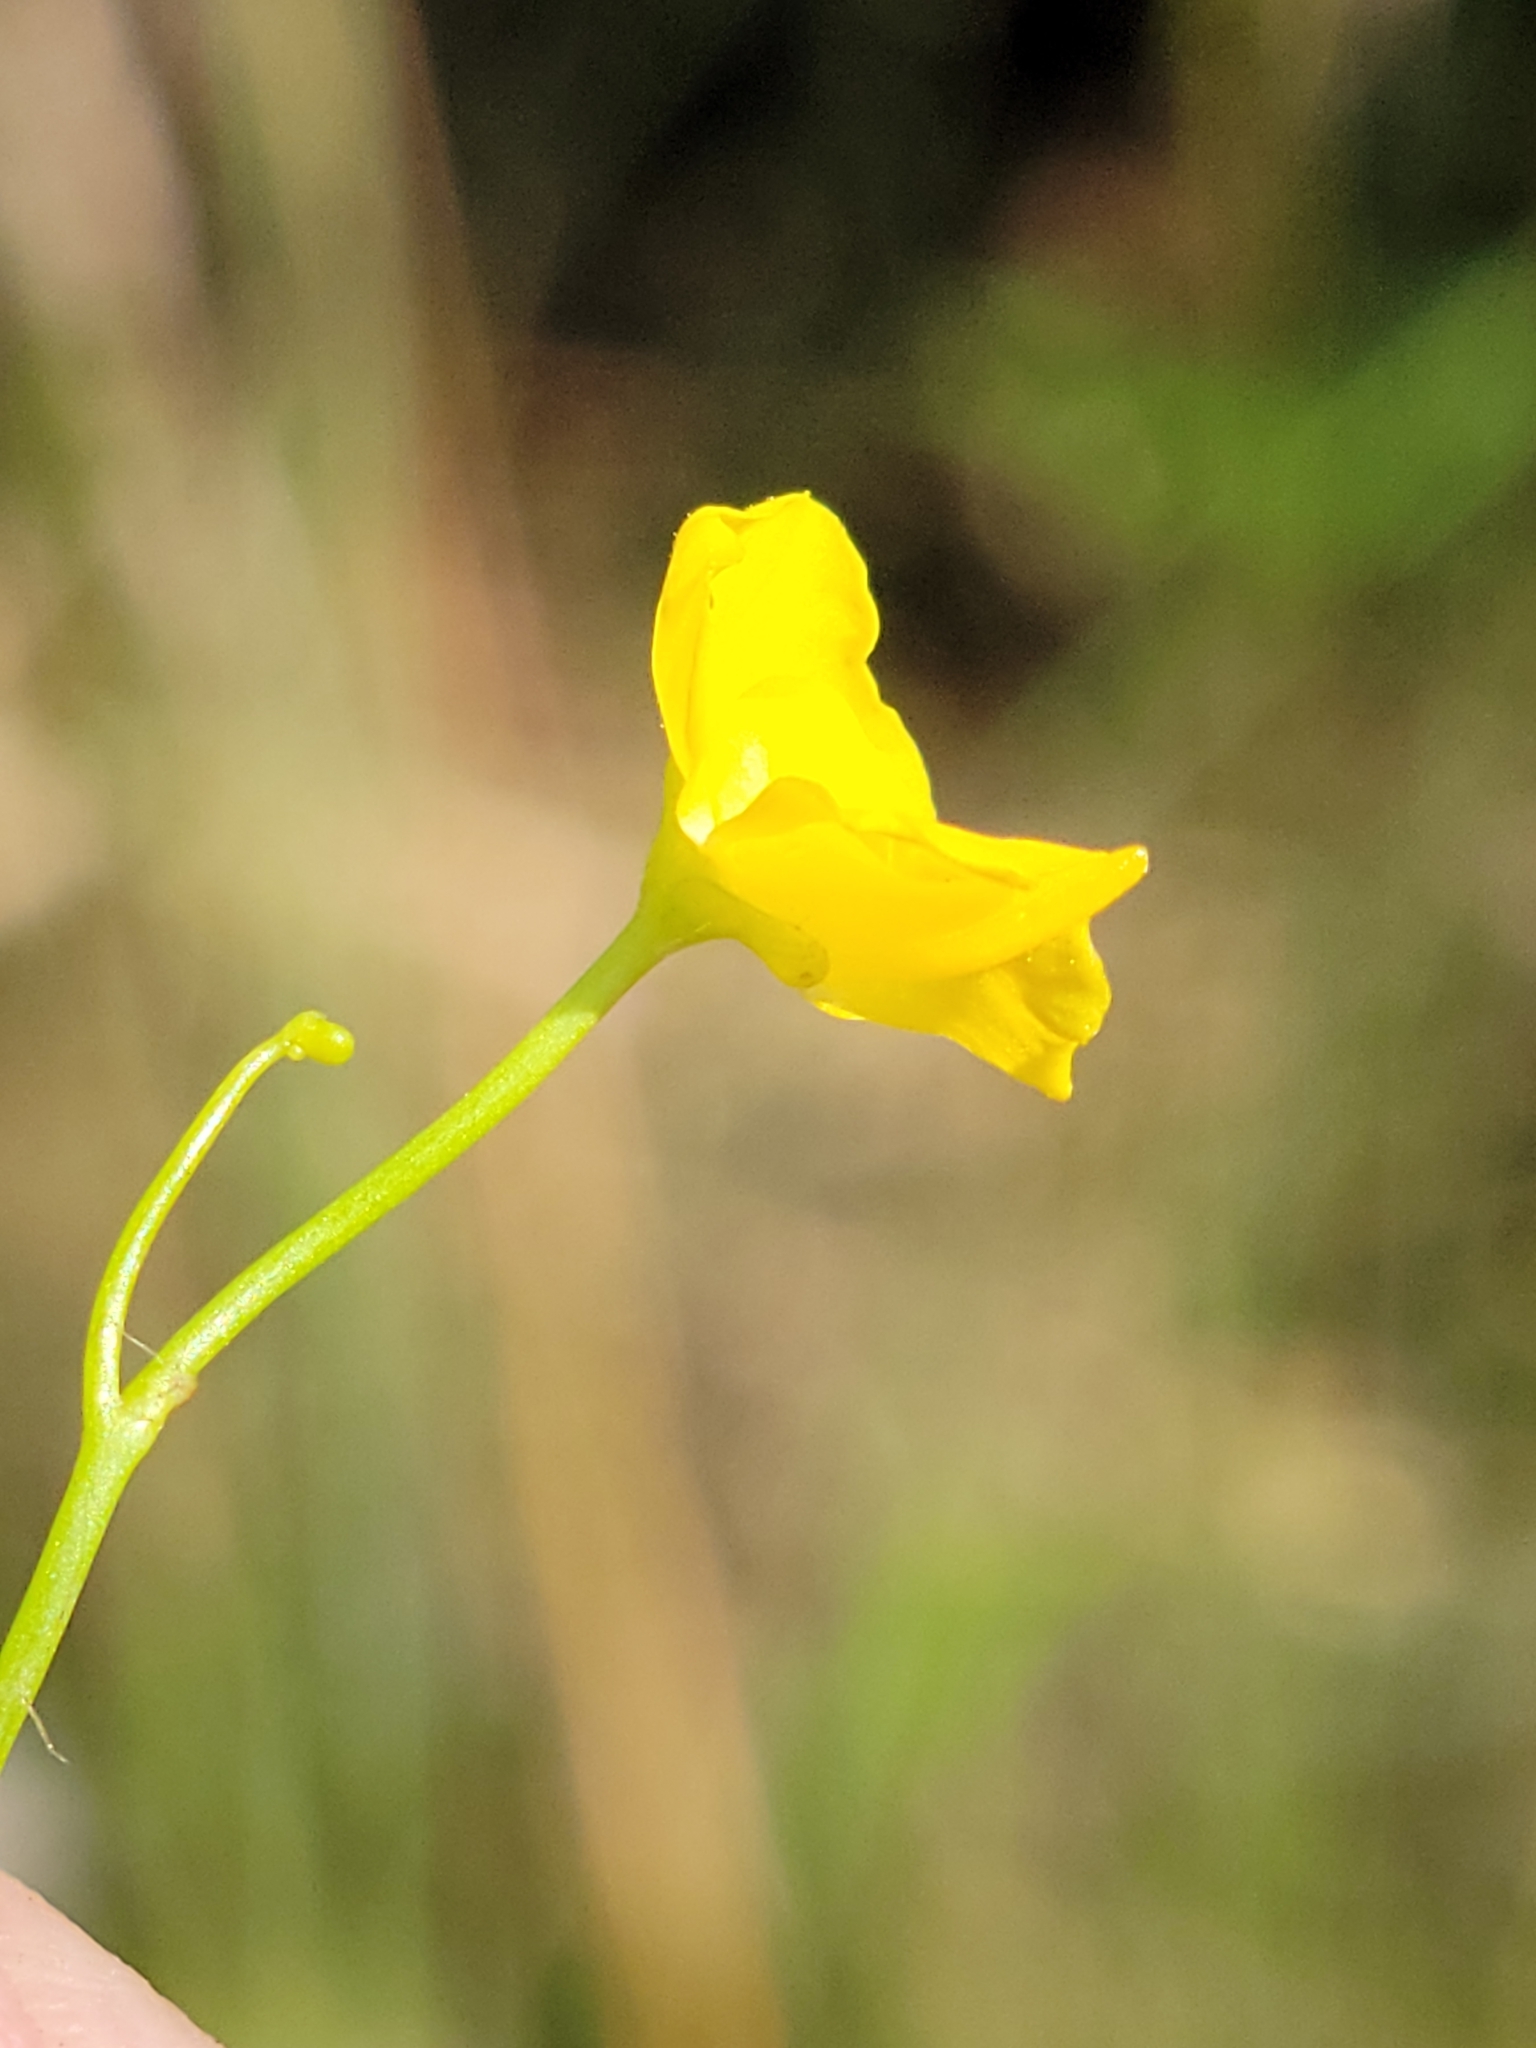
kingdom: Plantae
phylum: Tracheophyta
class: Magnoliopsida
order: Lamiales
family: Lentibulariaceae
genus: Utricularia
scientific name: Utricularia gibba
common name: Humped bladderwort
